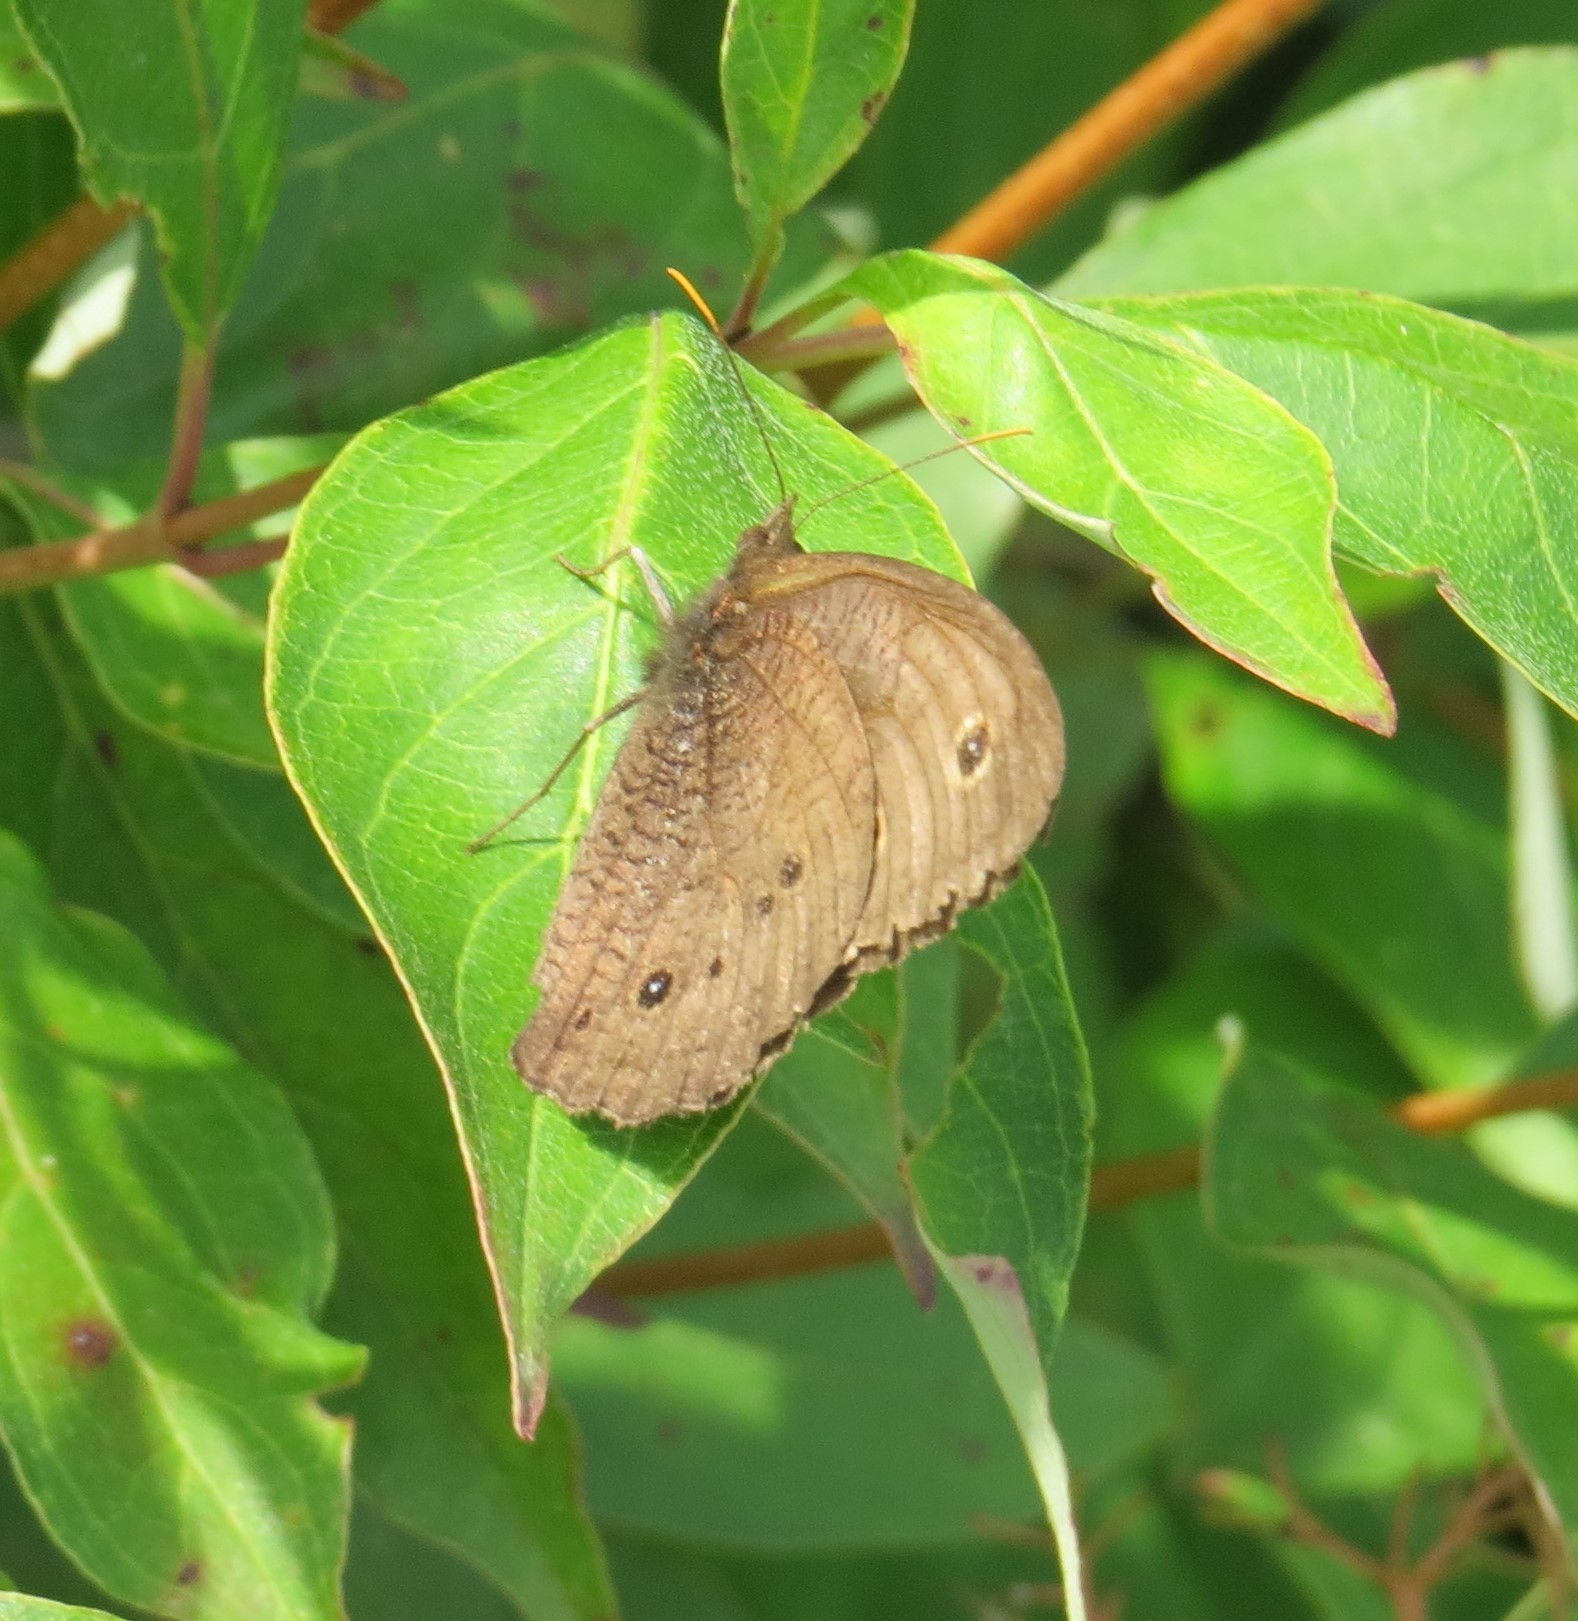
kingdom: Animalia
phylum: Arthropoda
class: Insecta
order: Lepidoptera
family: Nymphalidae
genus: Cercyonis
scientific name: Cercyonis pegala
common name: Common wood-nymph
